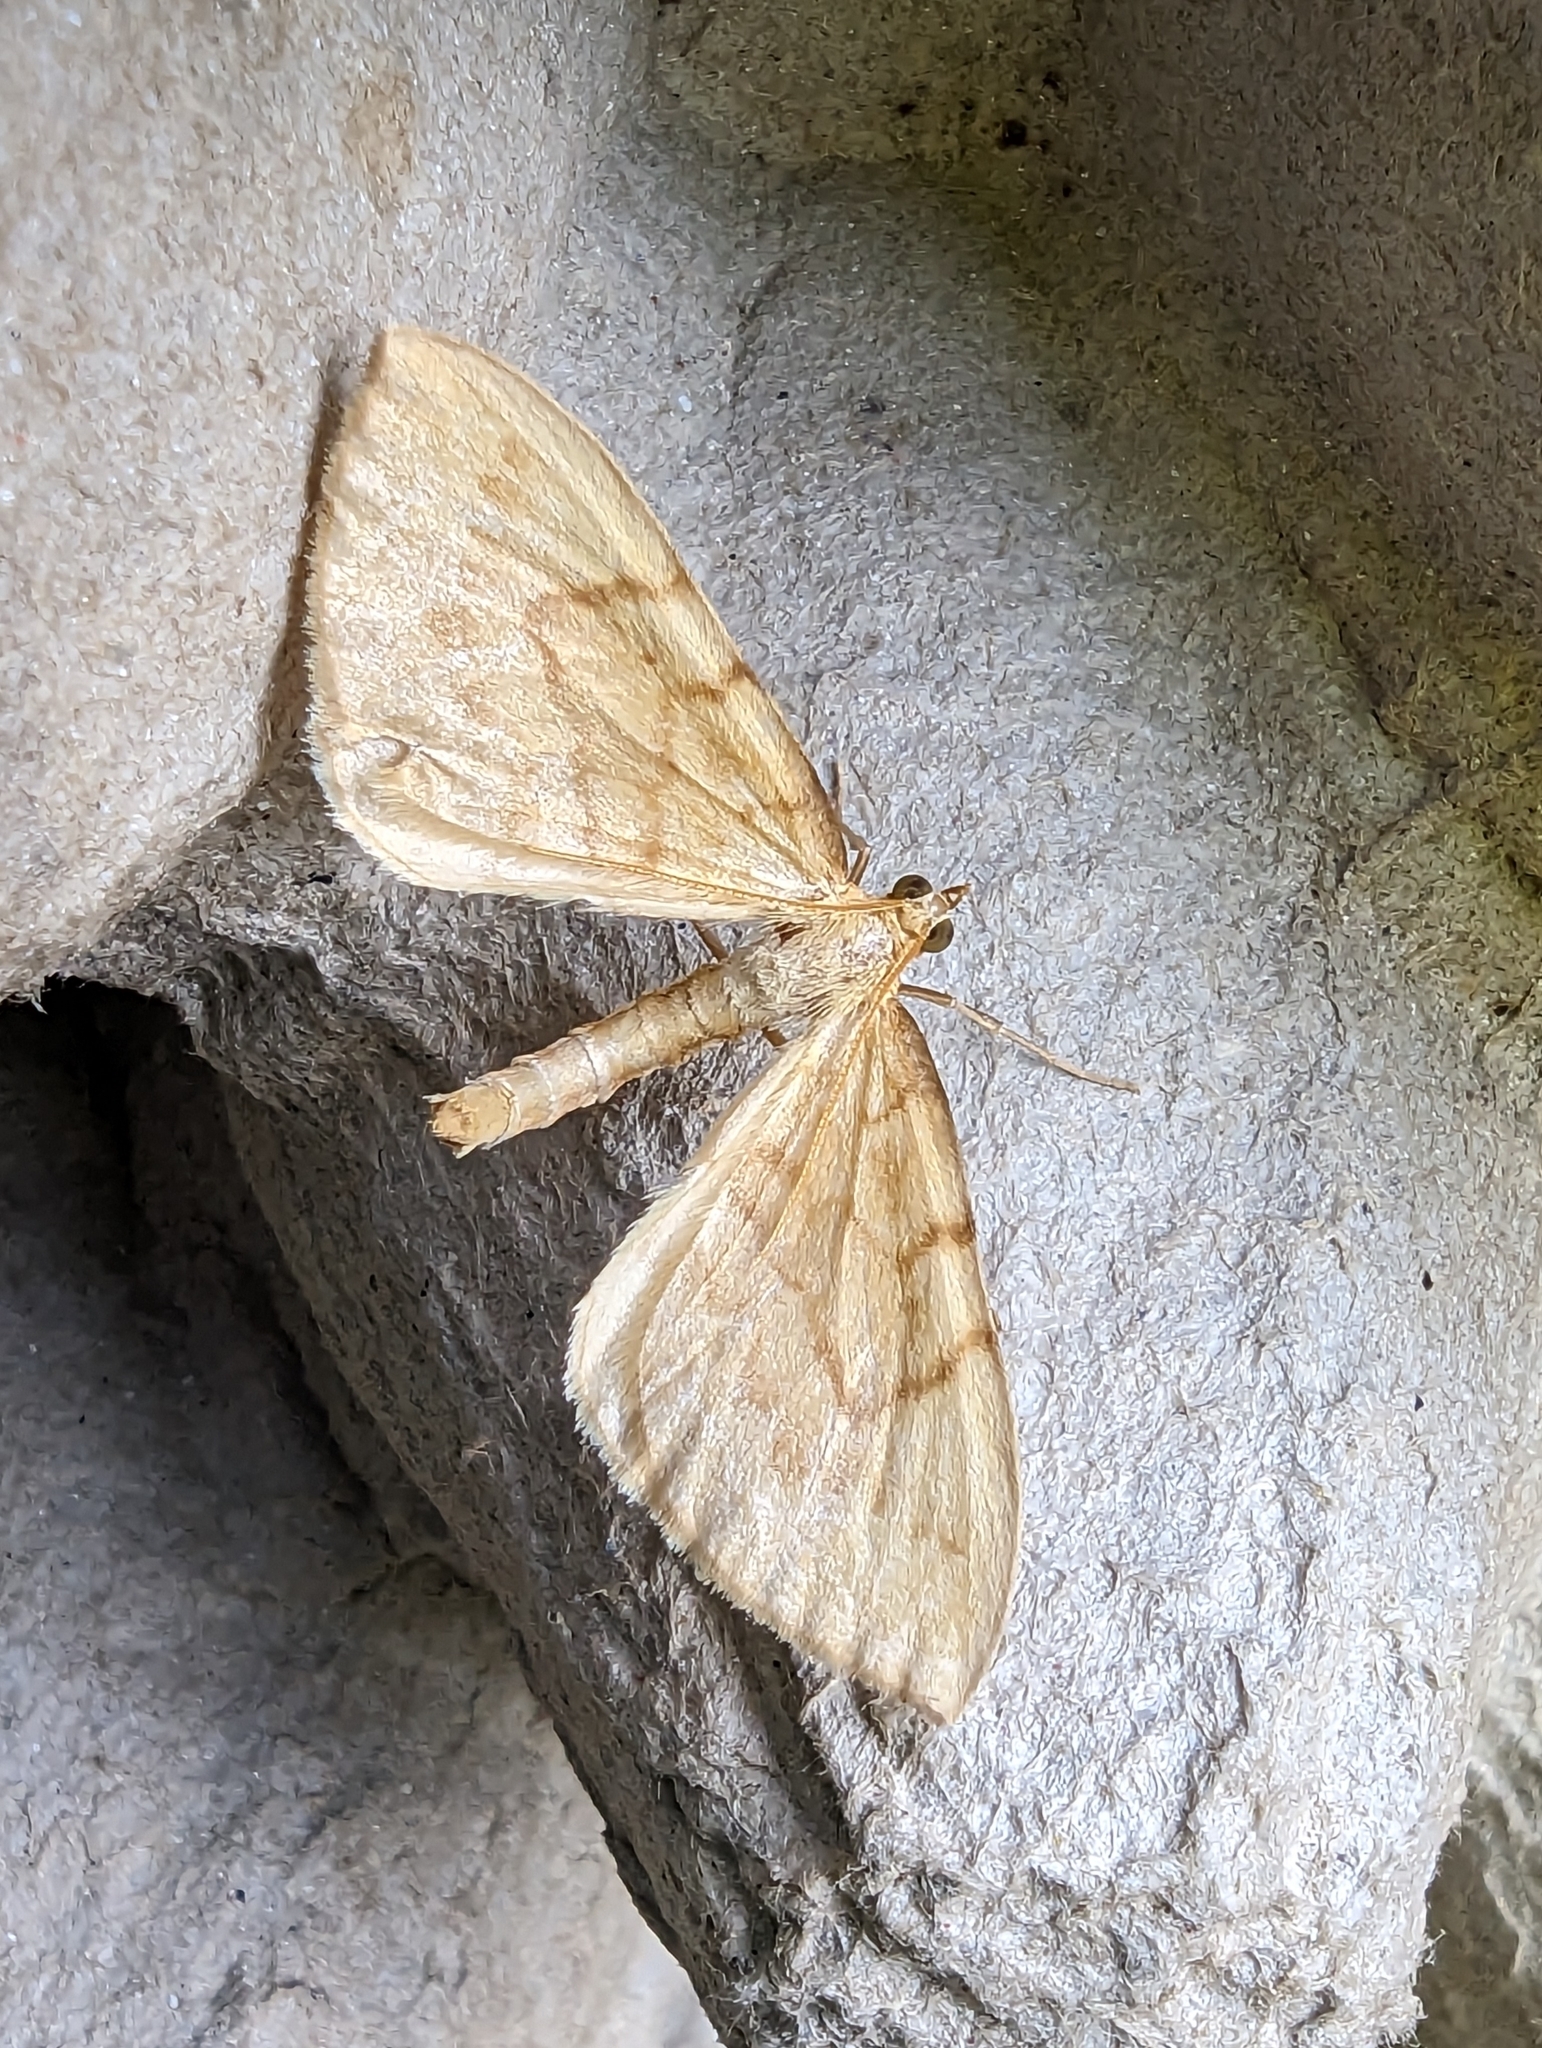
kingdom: Animalia
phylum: Arthropoda
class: Insecta
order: Lepidoptera
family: Geometridae
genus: Eulithis
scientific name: Eulithis pyraliata
